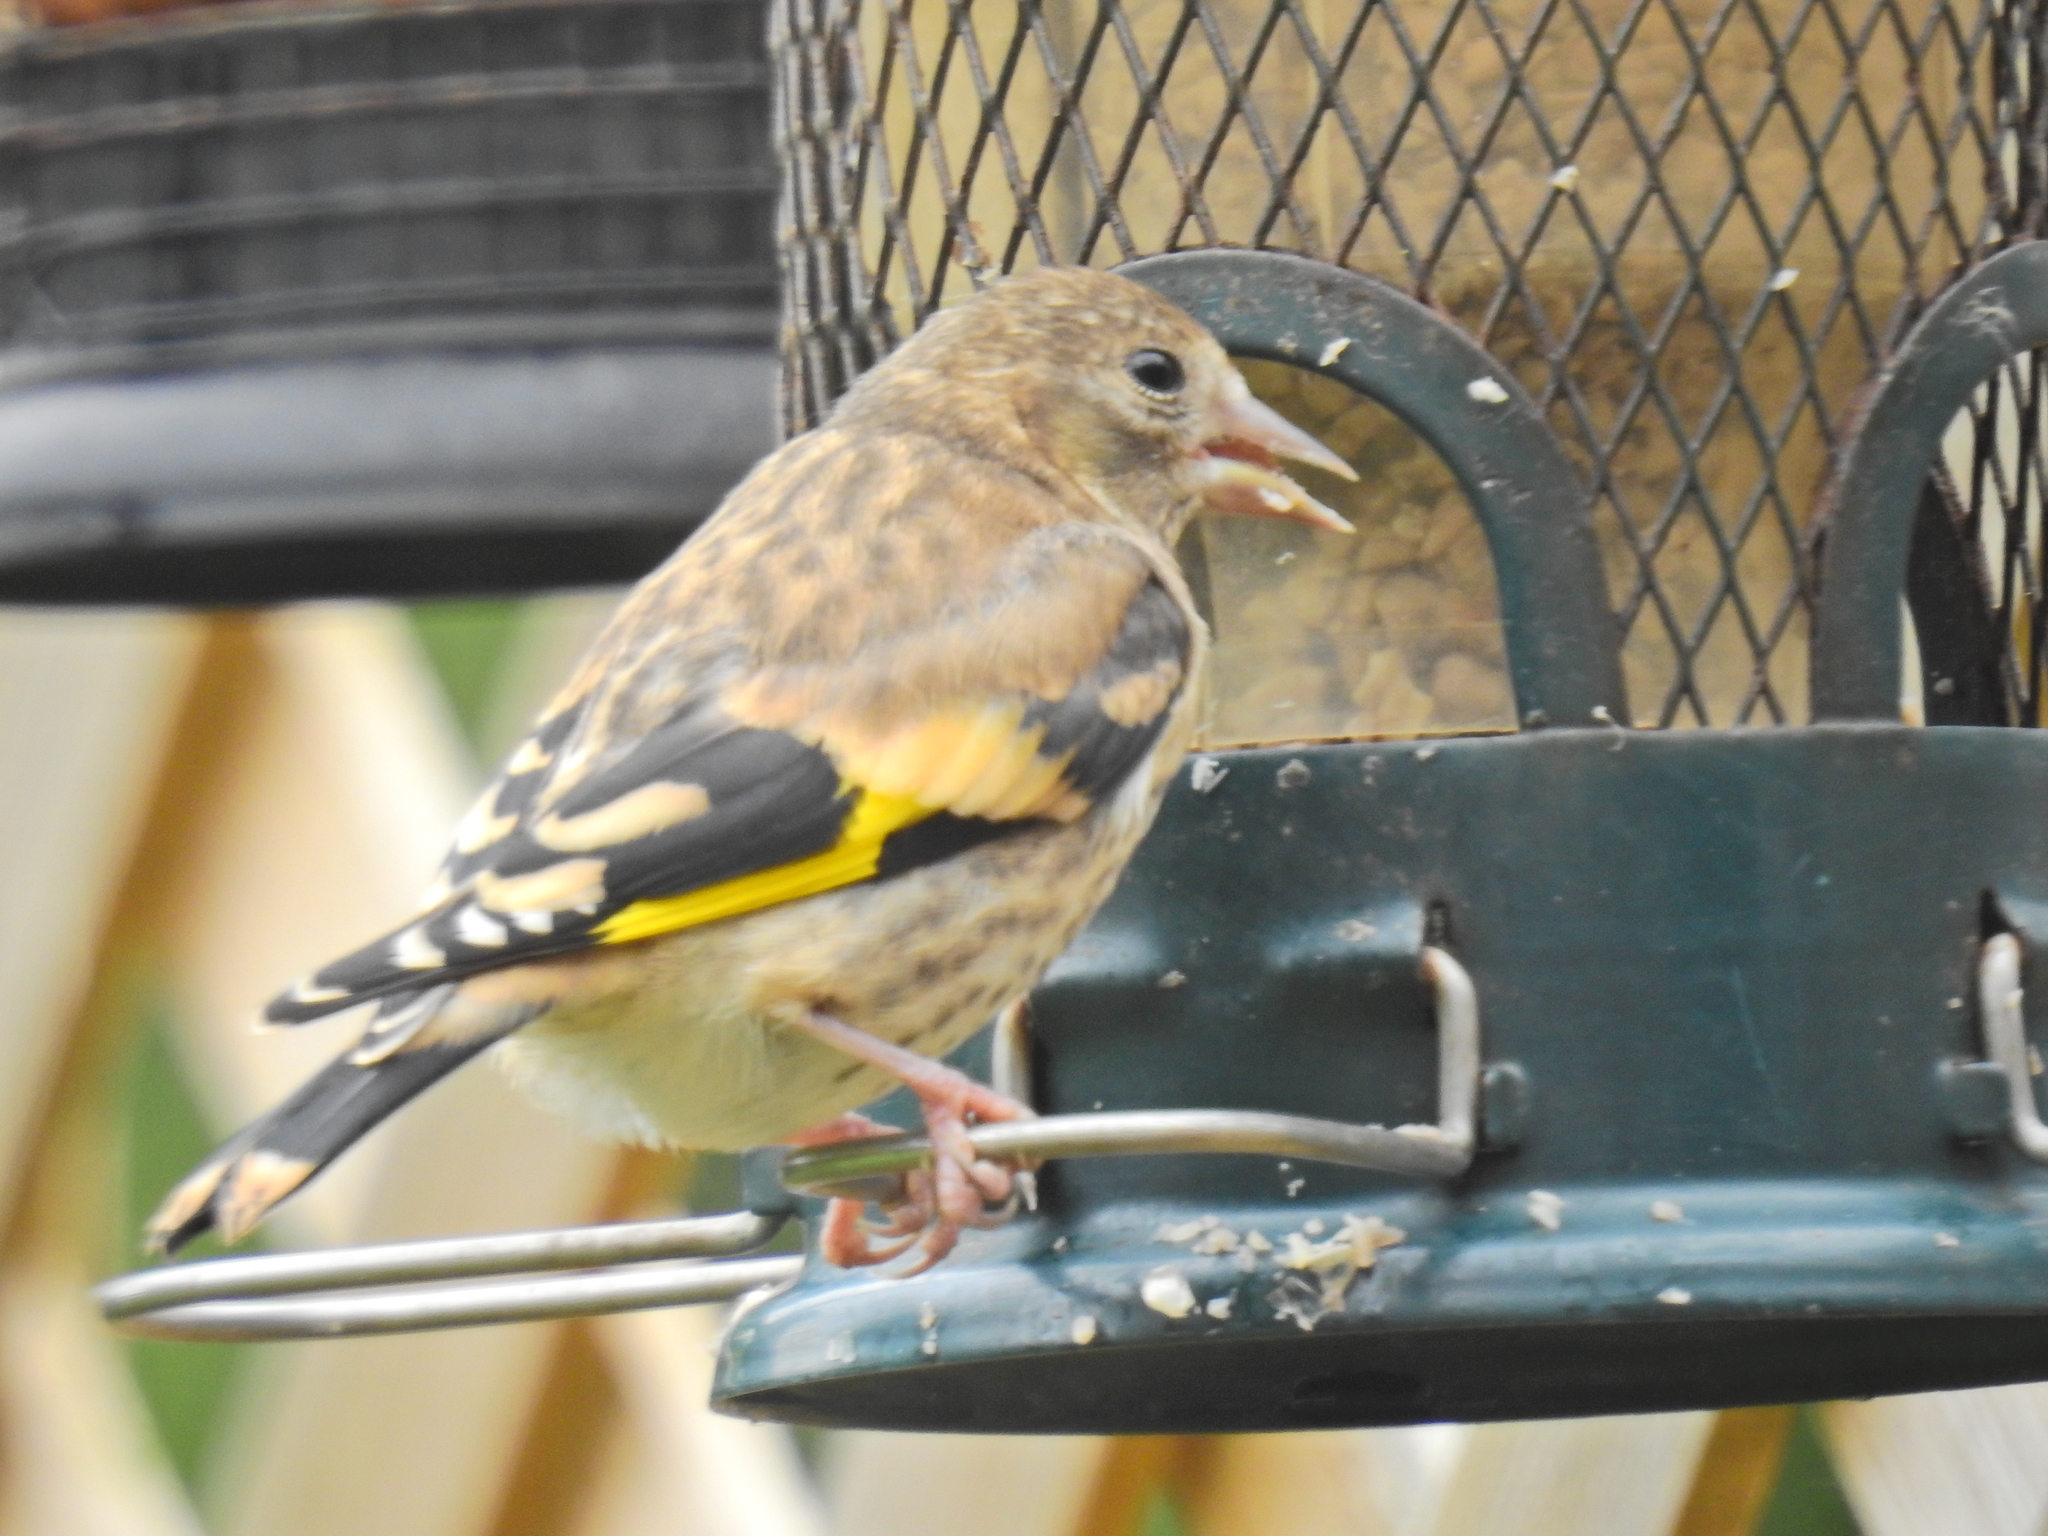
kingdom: Animalia
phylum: Chordata
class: Aves
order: Passeriformes
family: Fringillidae
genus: Carduelis
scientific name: Carduelis carduelis
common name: European goldfinch
